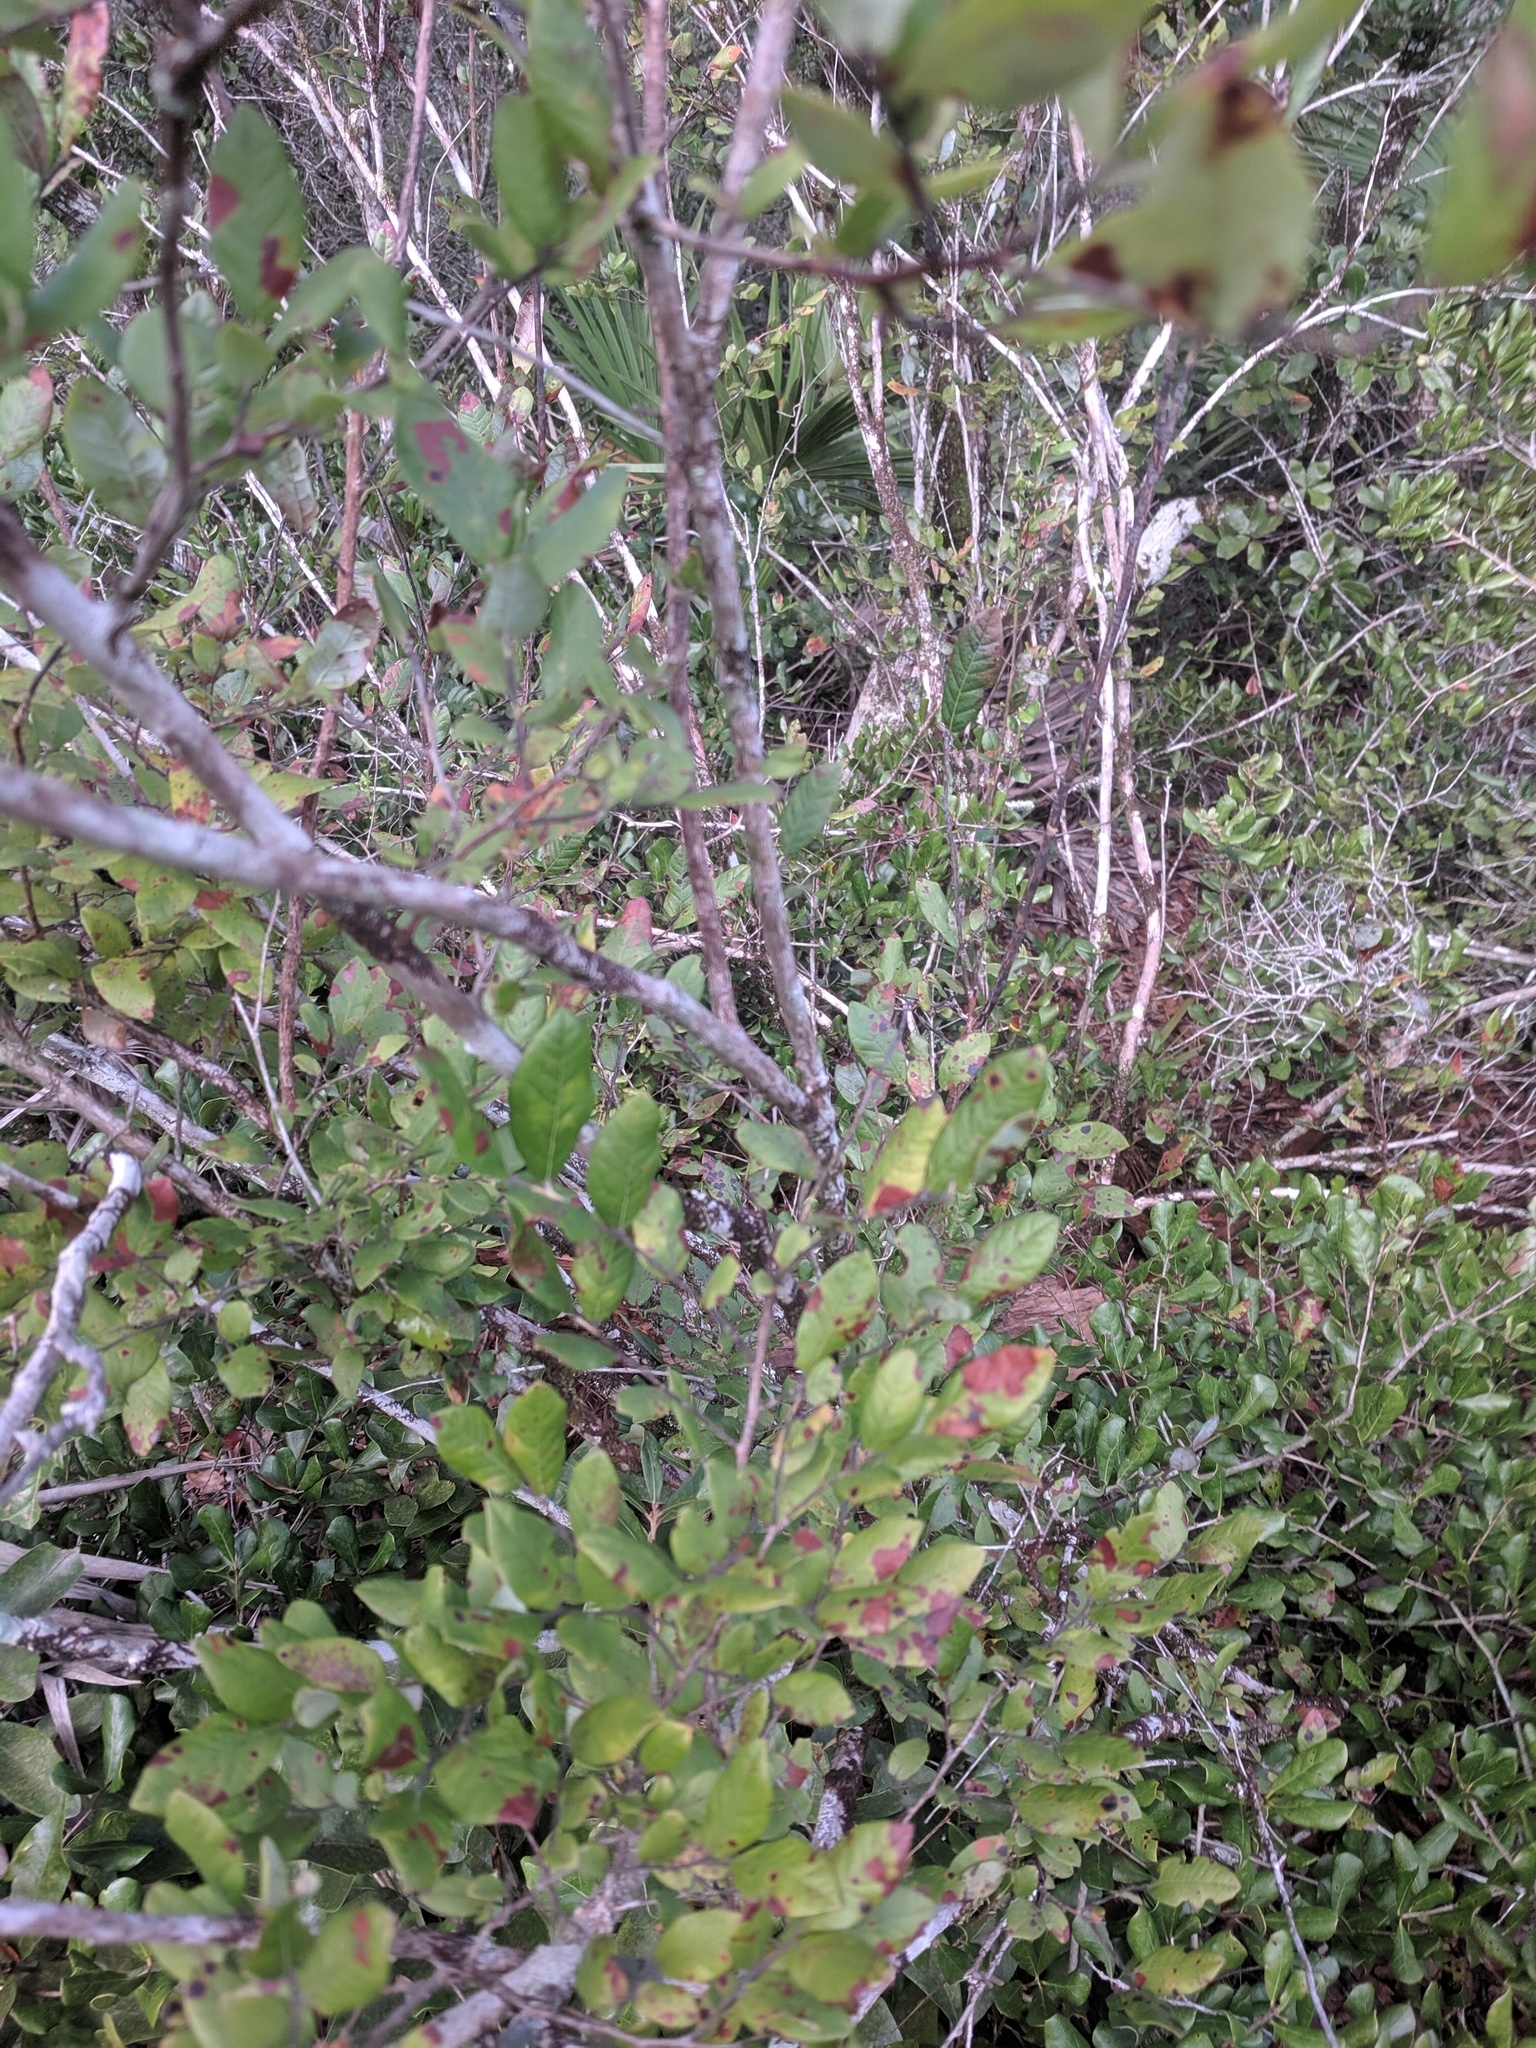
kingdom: Plantae
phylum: Tracheophyta
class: Magnoliopsida
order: Ericales
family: Ericaceae
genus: Vaccinium
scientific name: Vaccinium stamineum
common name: Deerberry
